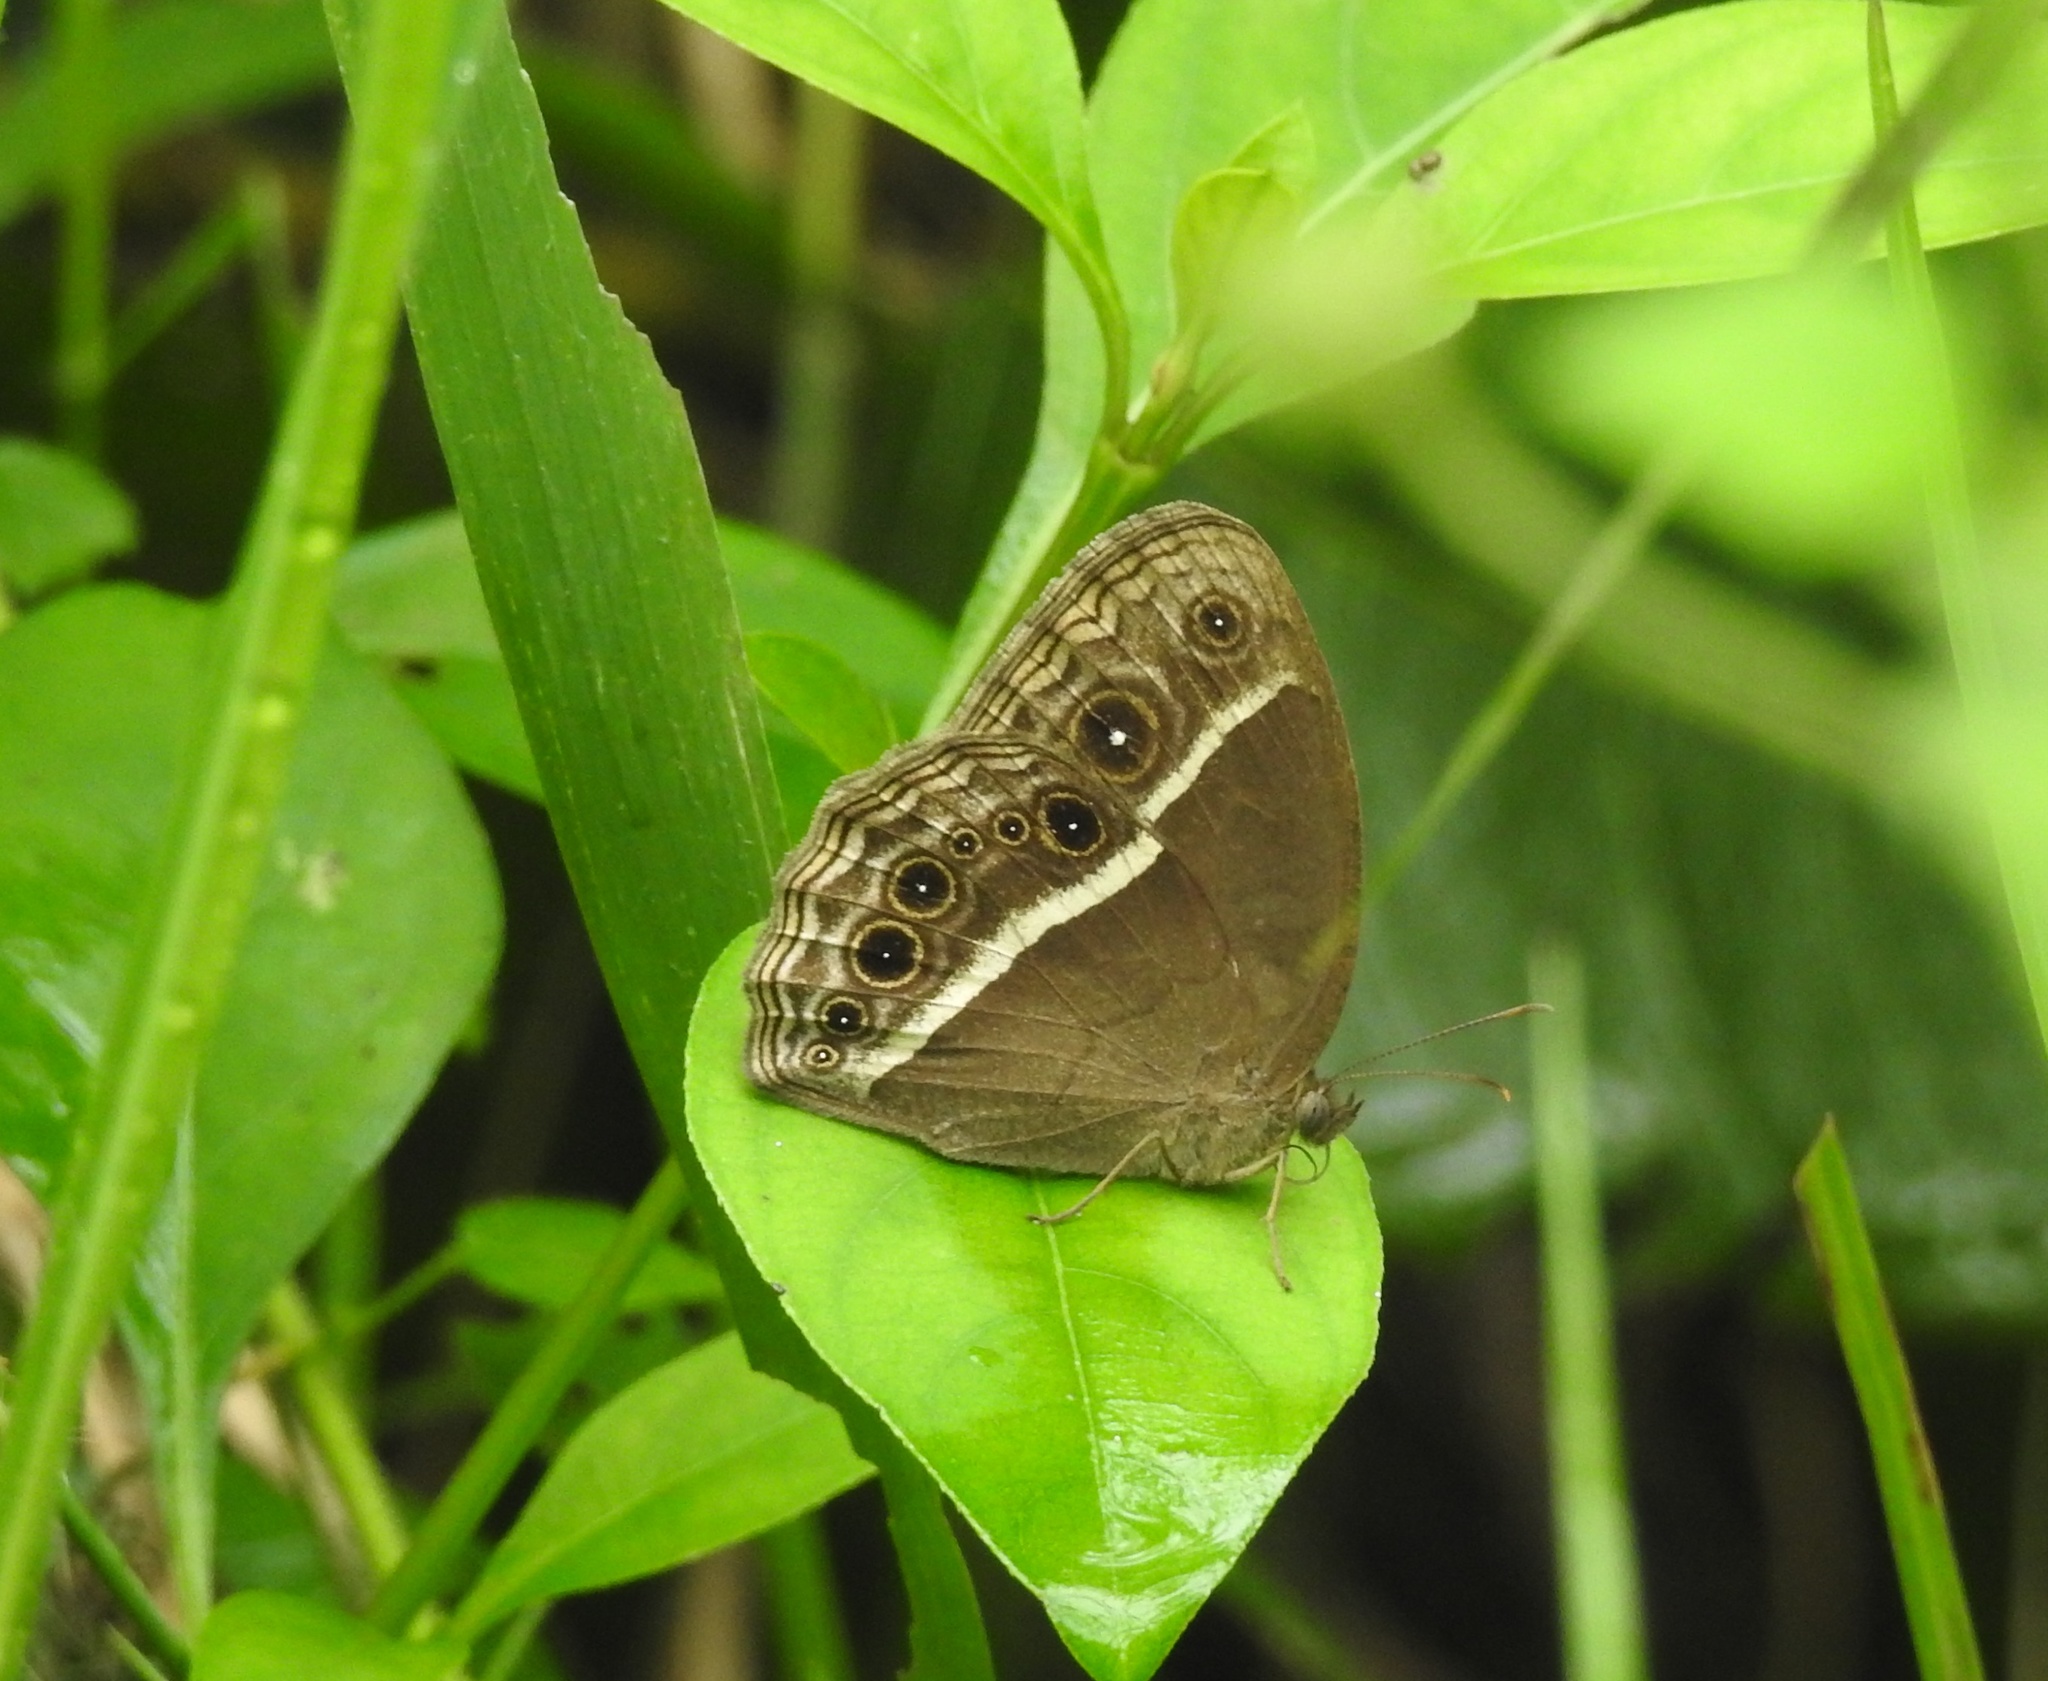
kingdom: Animalia
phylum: Arthropoda
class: Insecta
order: Lepidoptera
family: Nymphalidae
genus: Mycalesis
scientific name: Mycalesis mineus
